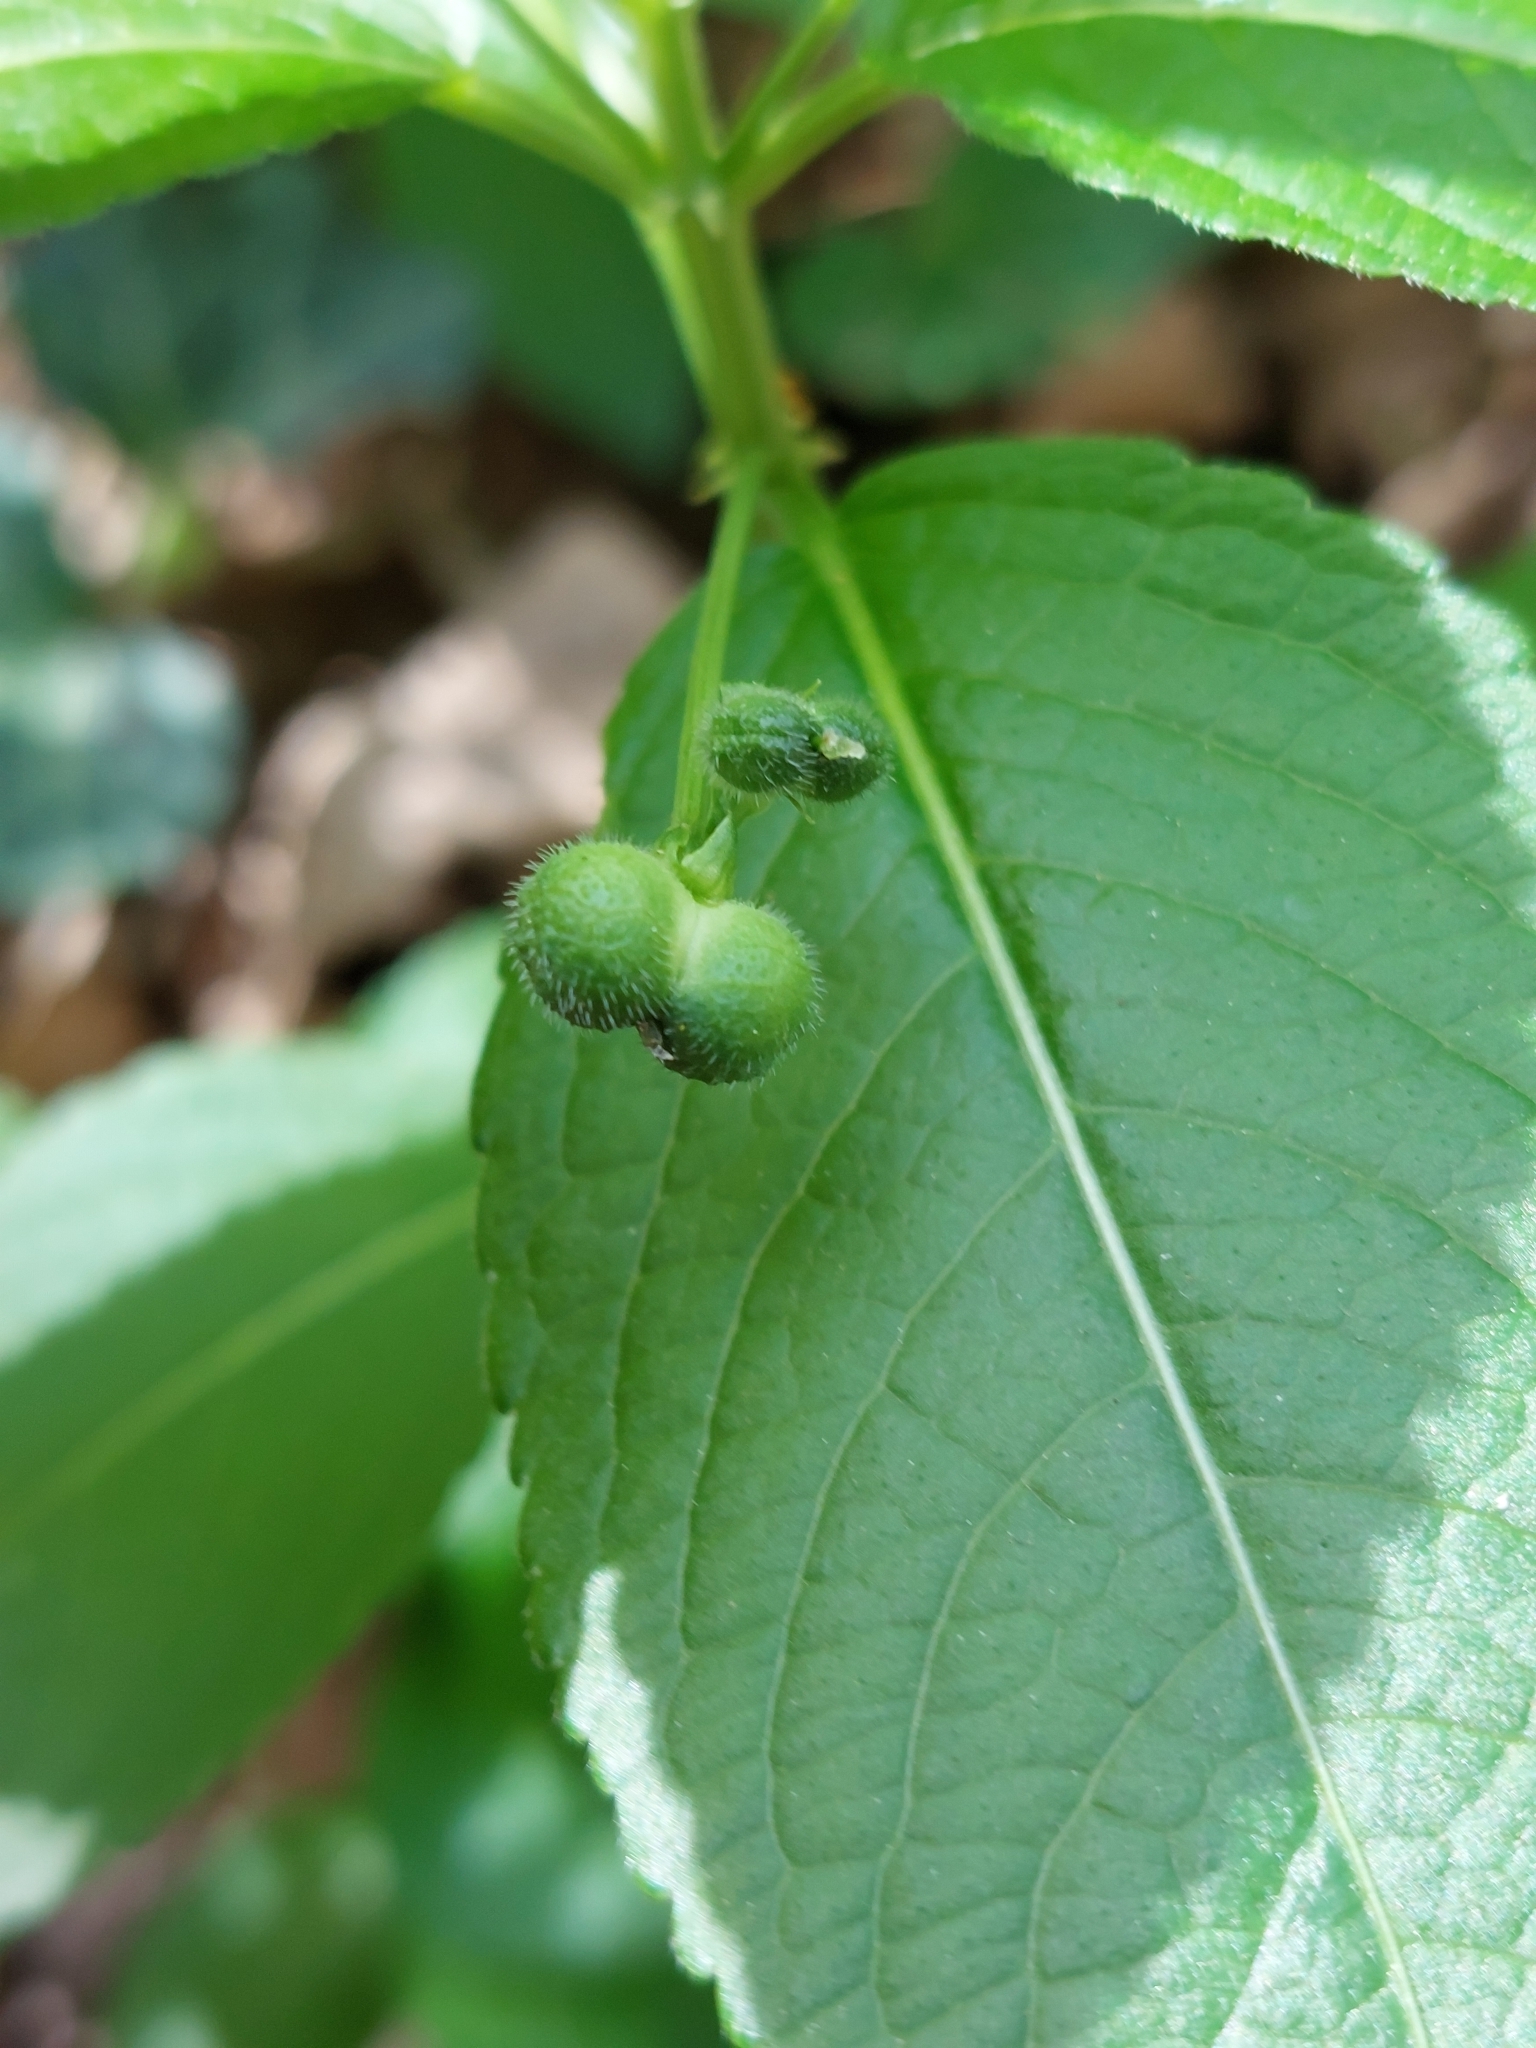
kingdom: Plantae
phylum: Tracheophyta
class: Magnoliopsida
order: Malpighiales
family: Euphorbiaceae
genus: Mercurialis
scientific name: Mercurialis perennis
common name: Dog mercury
